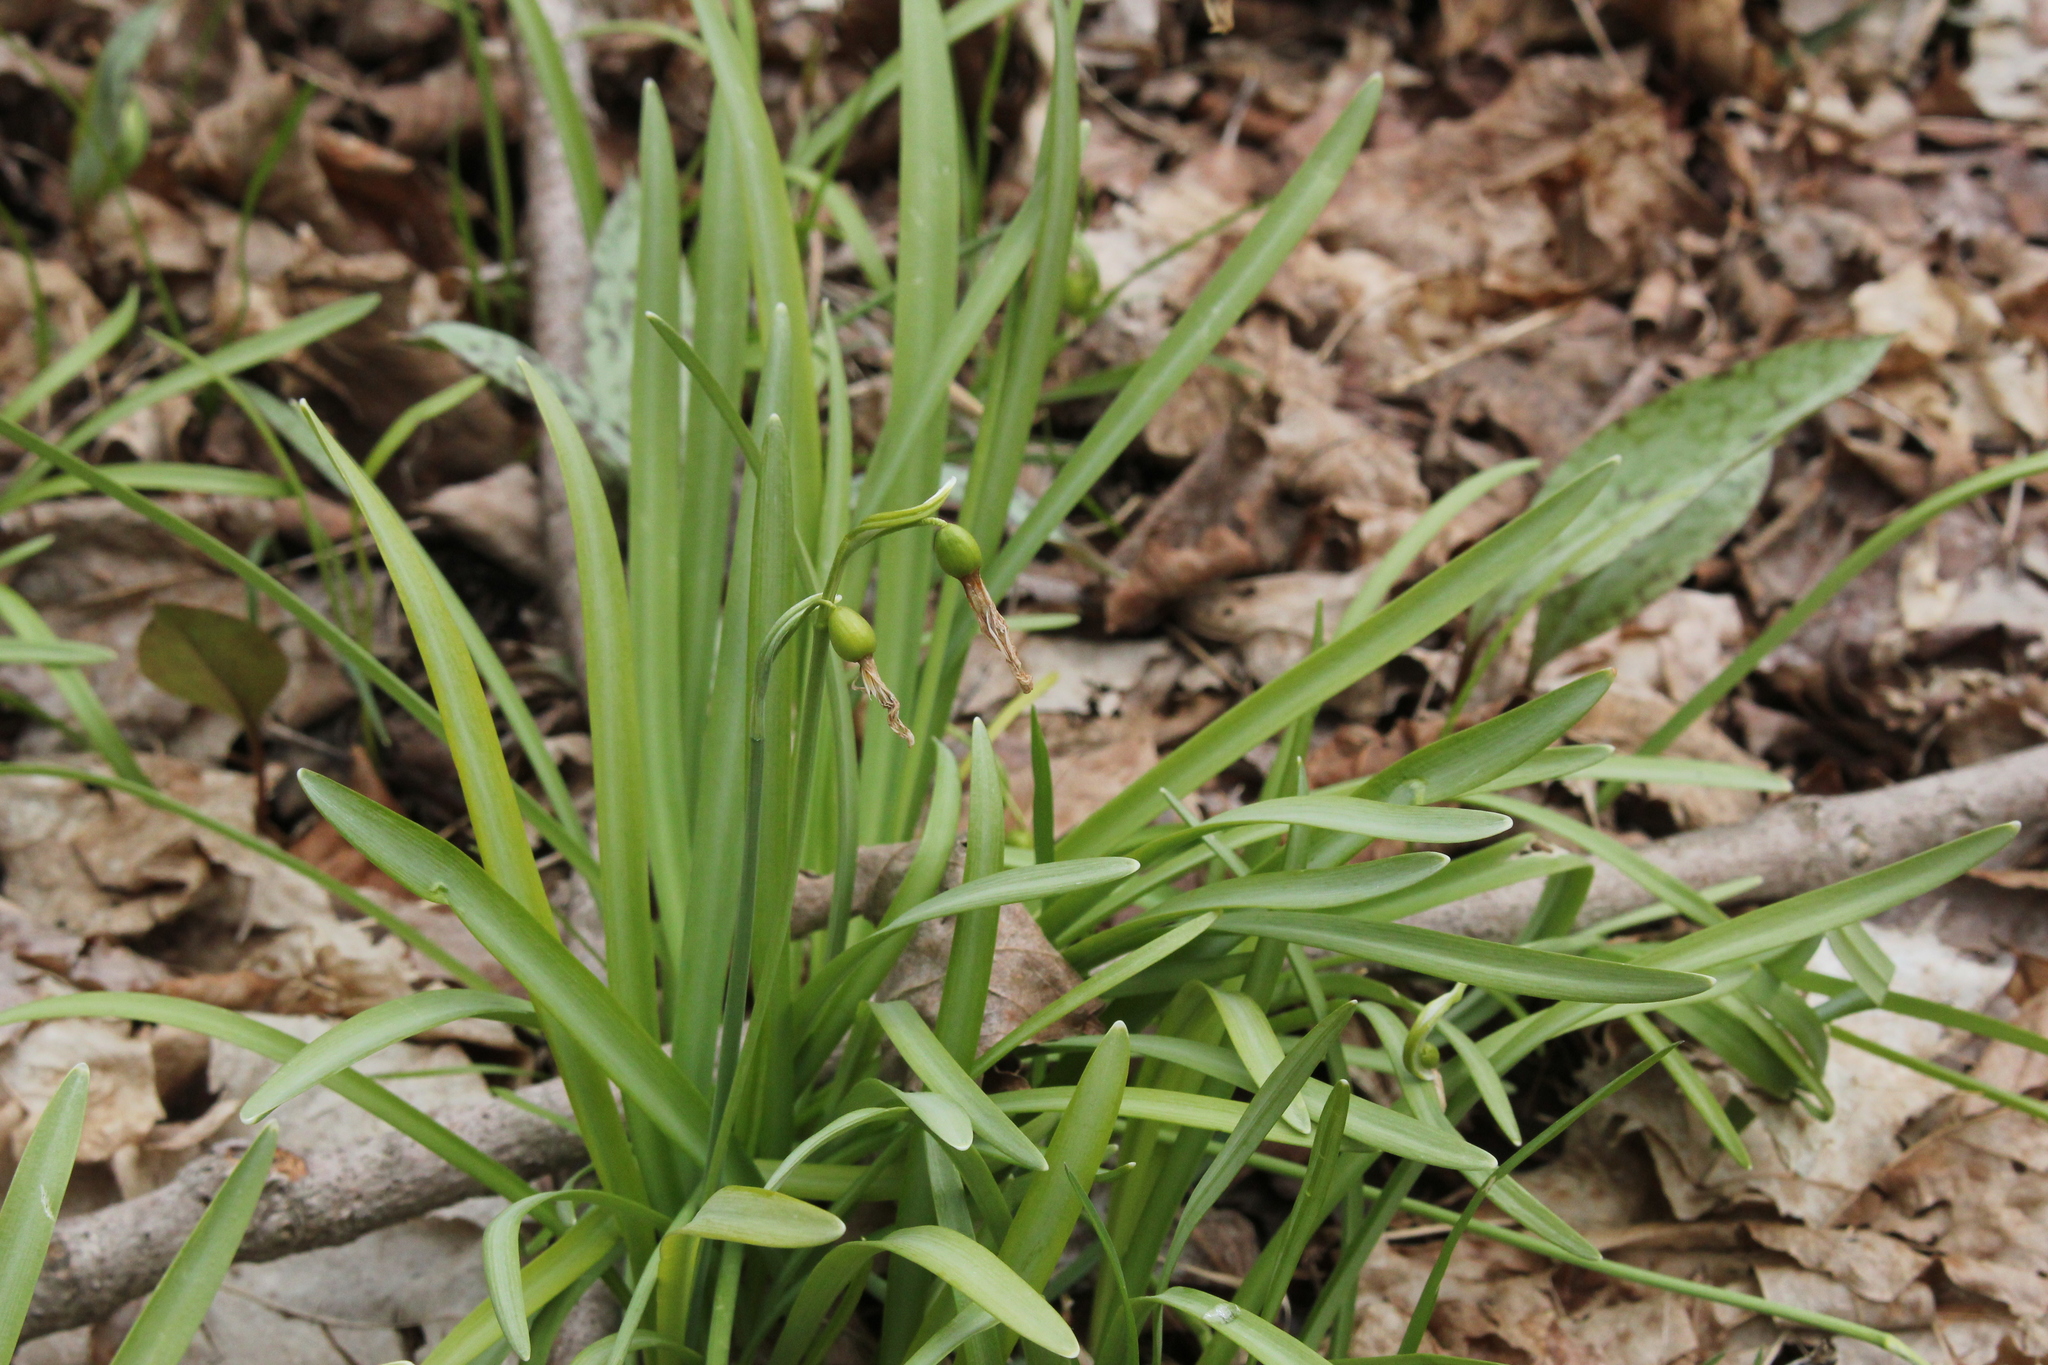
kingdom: Plantae
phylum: Tracheophyta
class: Liliopsida
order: Asparagales
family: Amaryllidaceae
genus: Galanthus
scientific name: Galanthus nivalis
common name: Snowdrop
